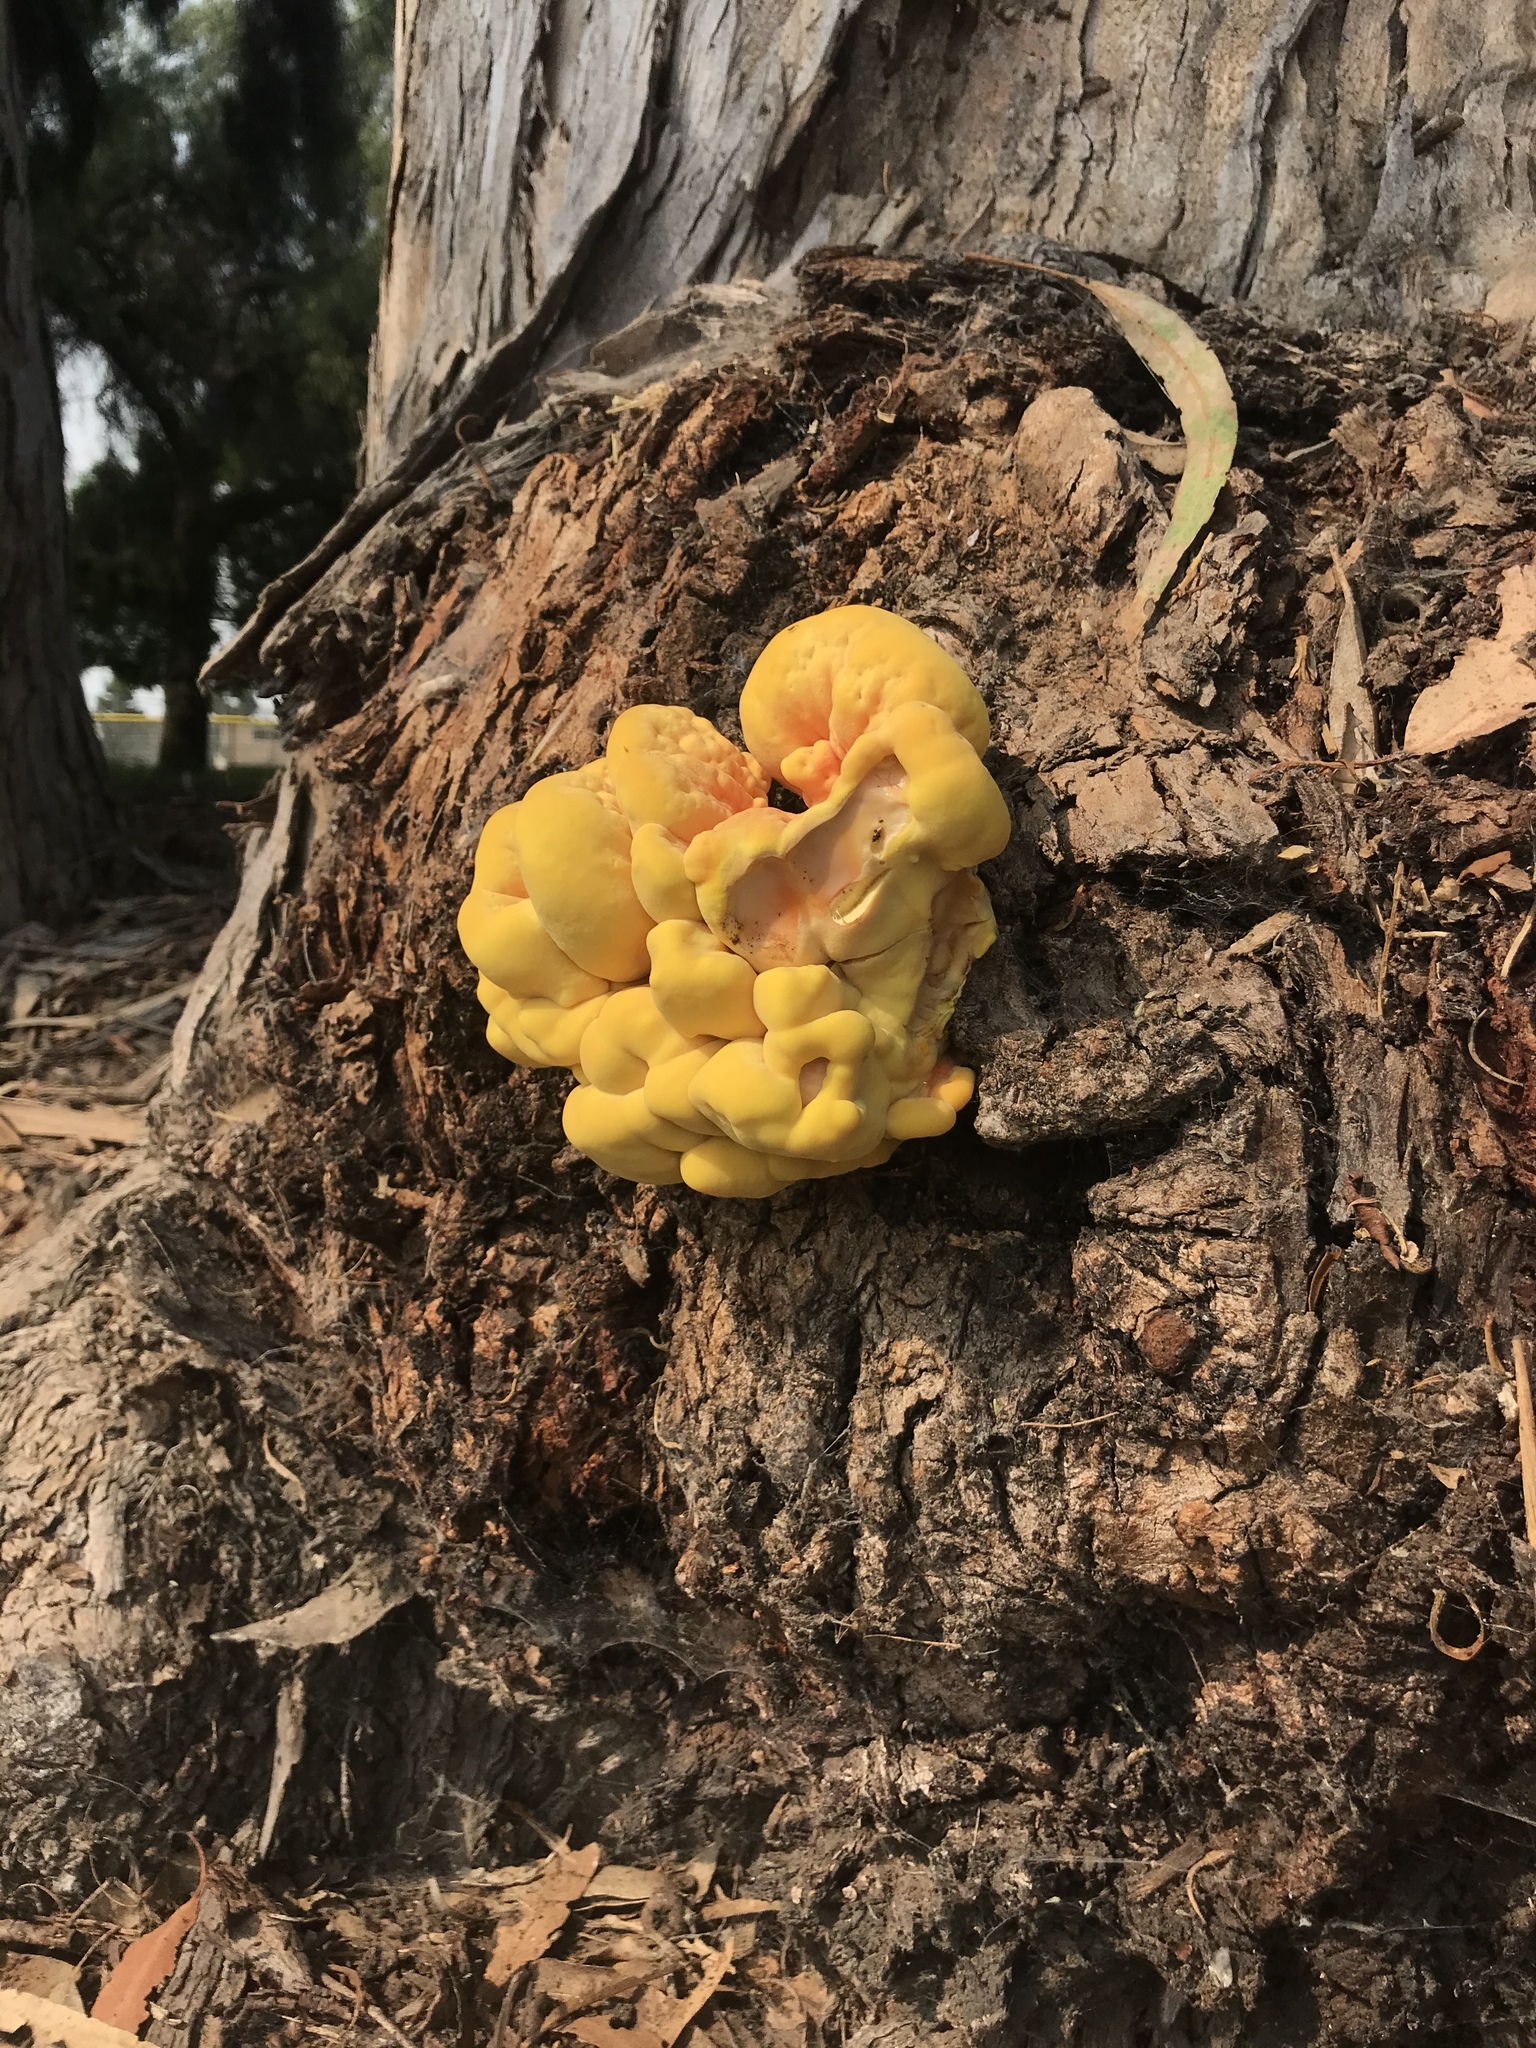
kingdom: Fungi
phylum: Basidiomycota
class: Agaricomycetes
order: Polyporales
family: Laetiporaceae
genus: Laetiporus
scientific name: Laetiporus gilbertsonii
